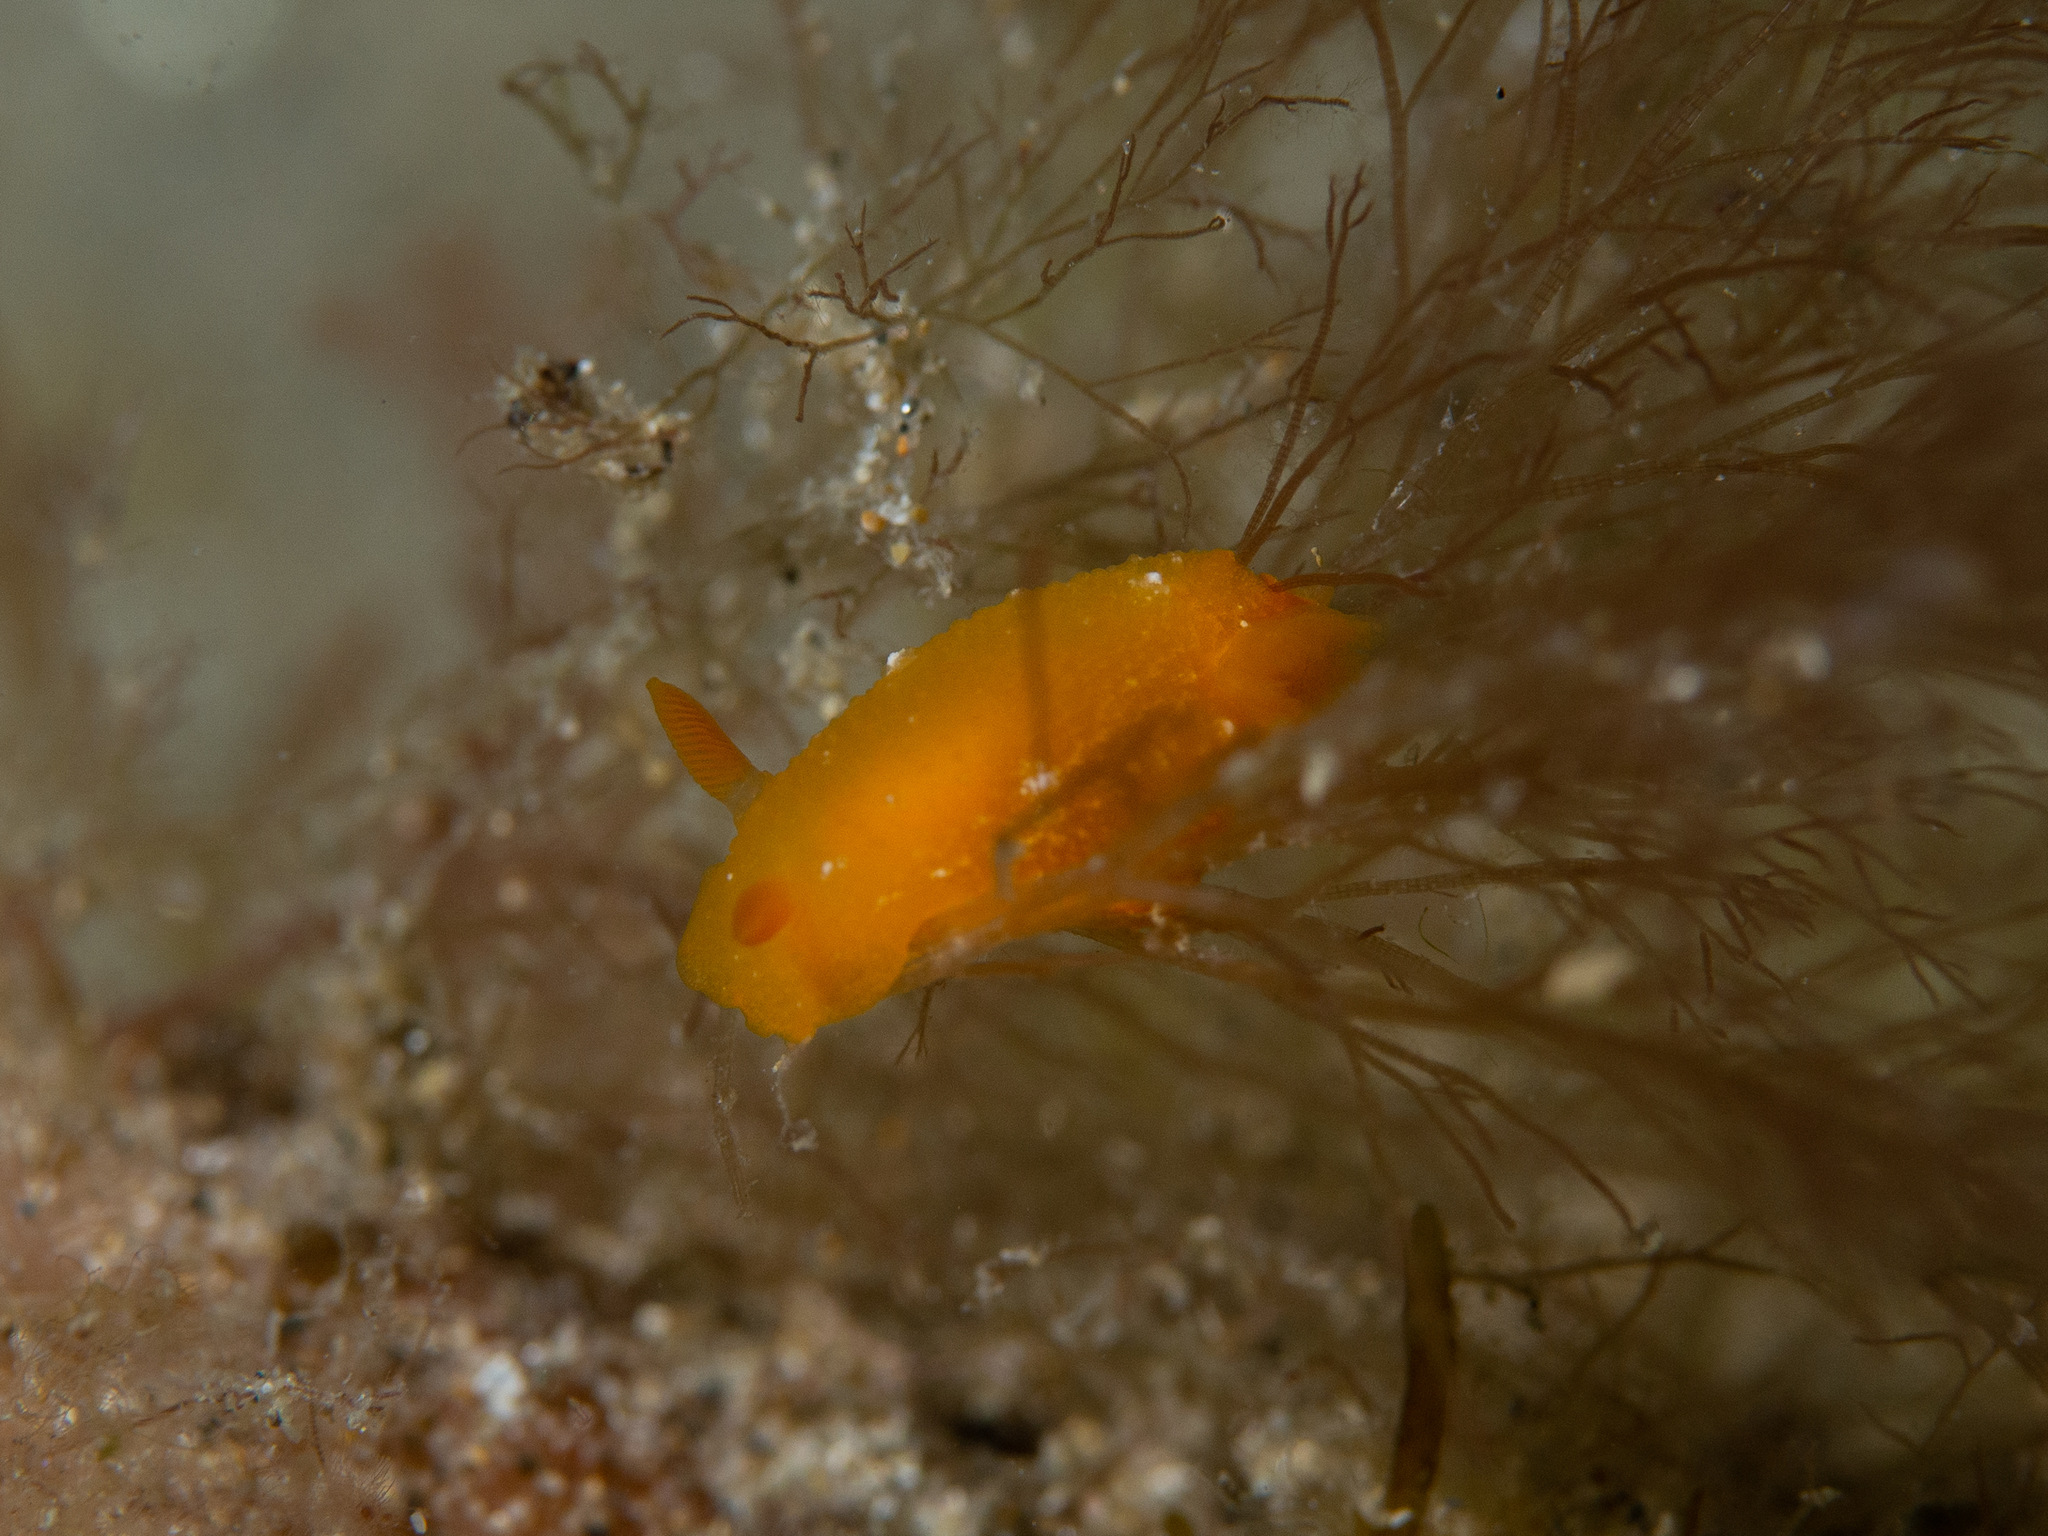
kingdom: Animalia
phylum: Mollusca
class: Gastropoda
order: Nudibranchia
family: Dendrodorididae
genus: Doriopsilla
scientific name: Doriopsilla carneola
